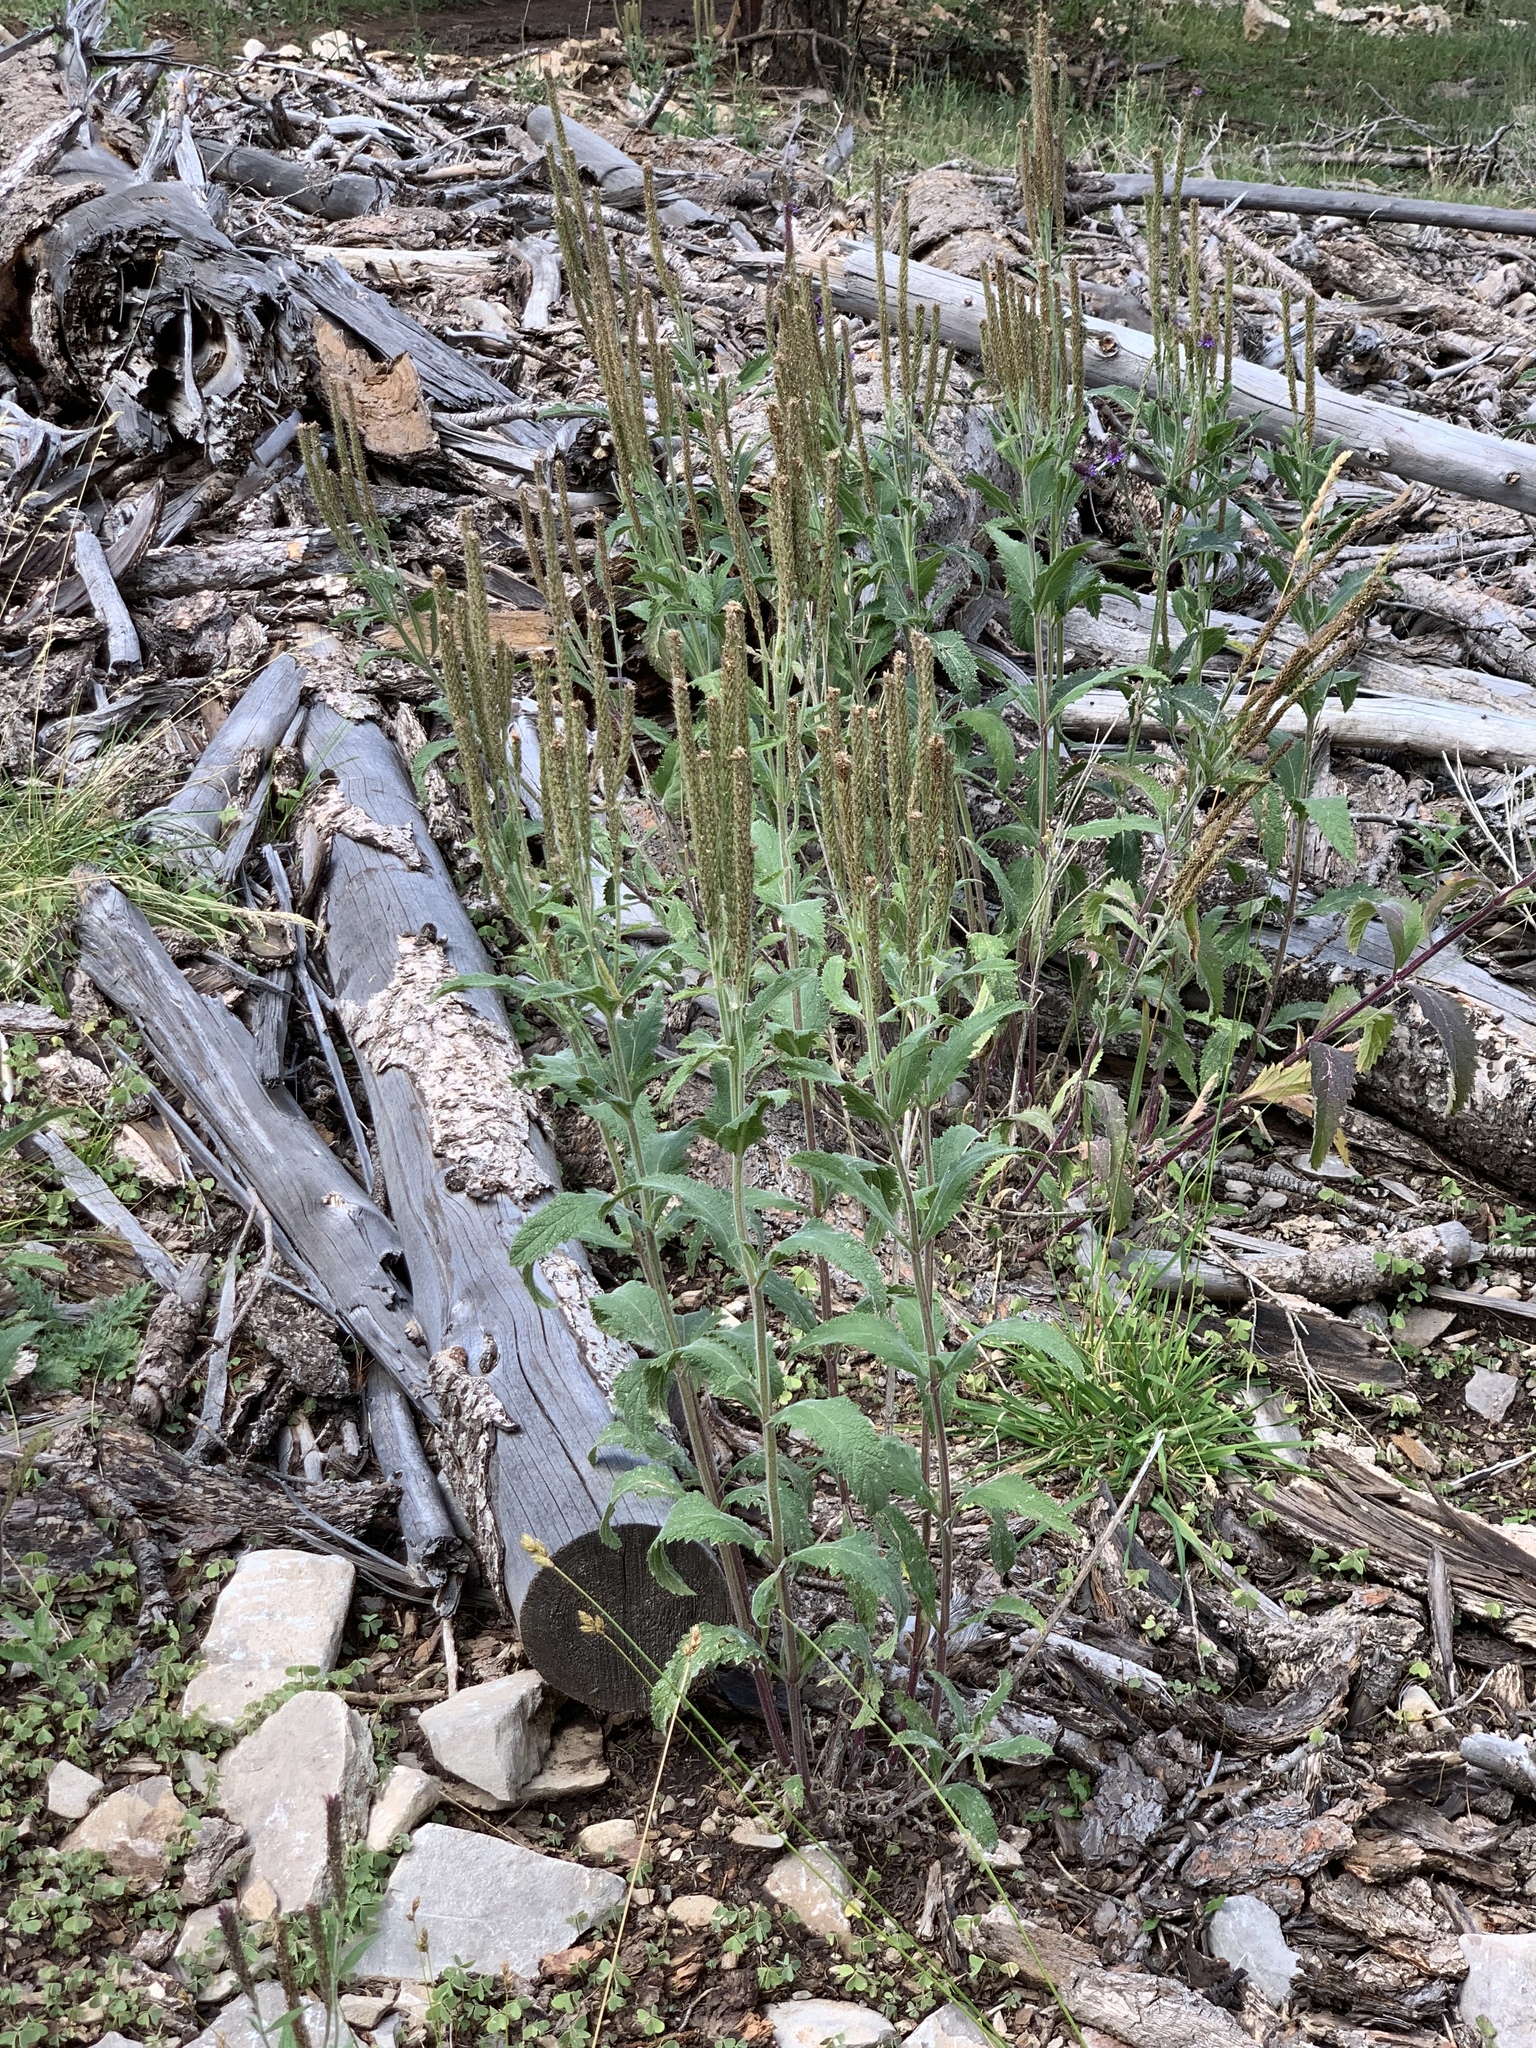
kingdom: Plantae
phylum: Tracheophyta
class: Magnoliopsida
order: Lamiales
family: Verbenaceae
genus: Verbena
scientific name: Verbena macdougalii
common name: New mexico vervain
